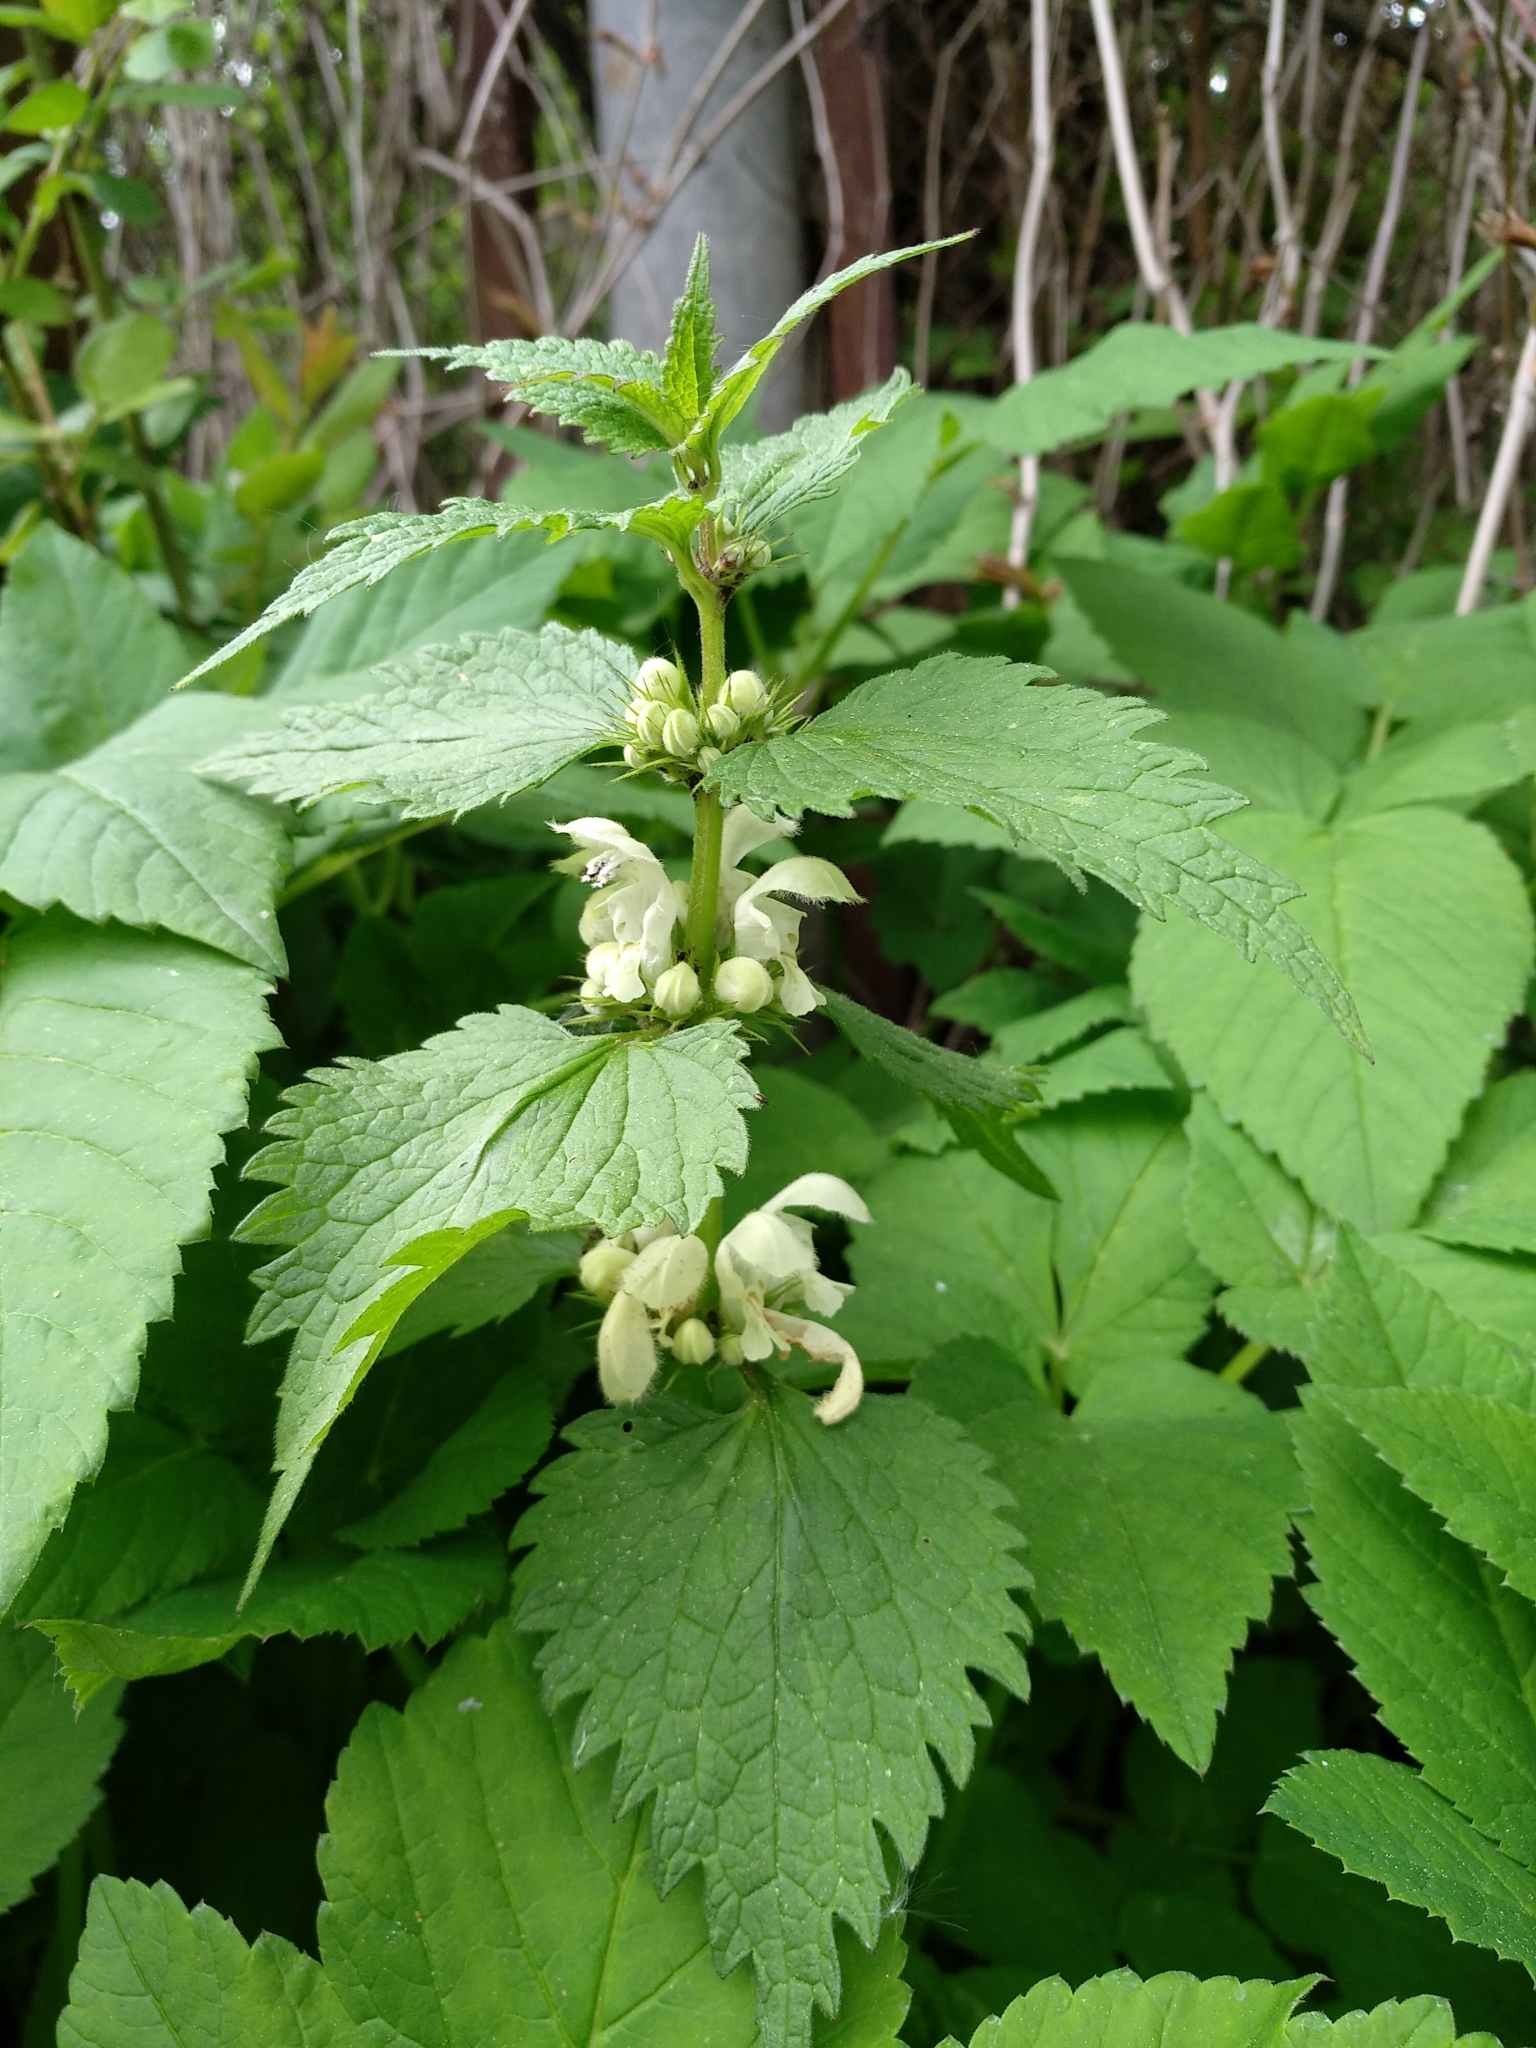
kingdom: Plantae
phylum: Tracheophyta
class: Magnoliopsida
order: Lamiales
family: Lamiaceae
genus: Lamium
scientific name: Lamium album
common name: White dead-nettle
